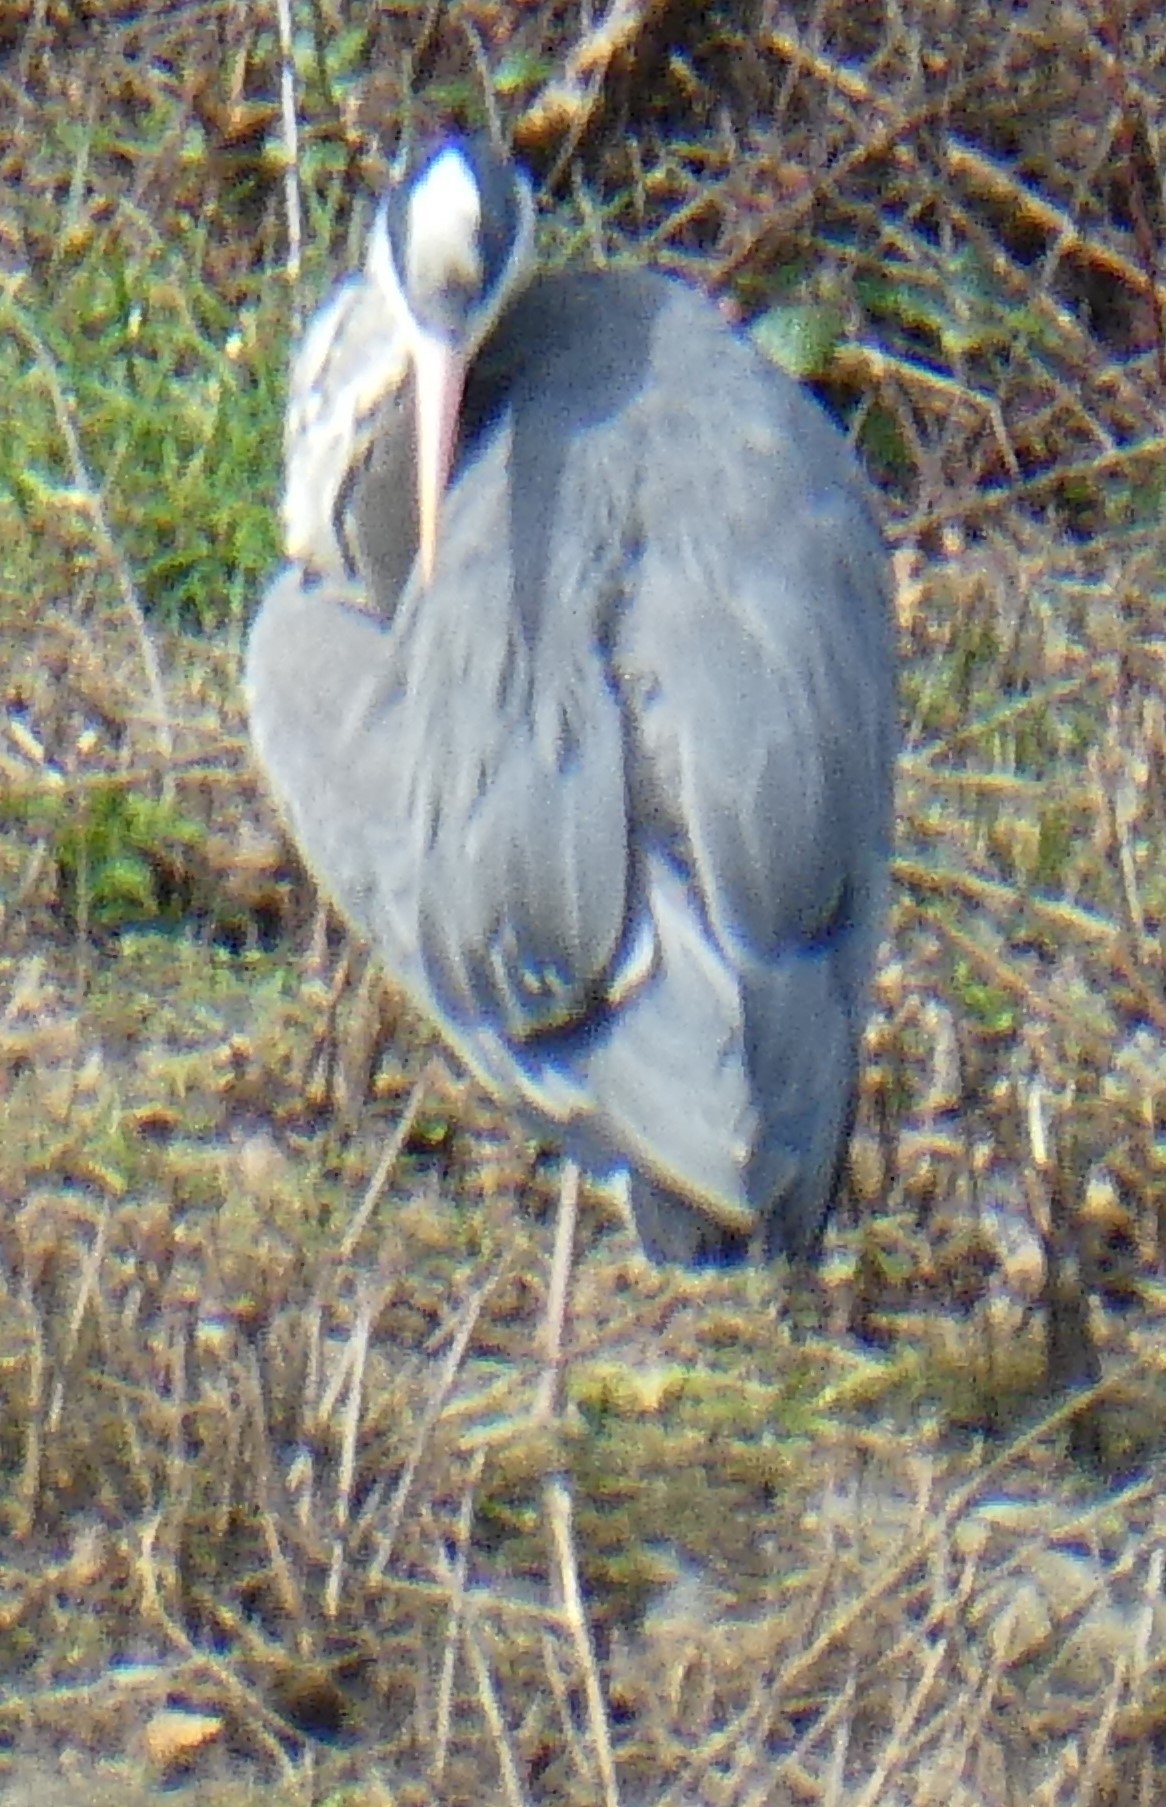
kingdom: Animalia
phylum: Chordata
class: Aves
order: Pelecaniformes
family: Ardeidae
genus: Ardea
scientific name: Ardea cinerea
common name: Grey heron
